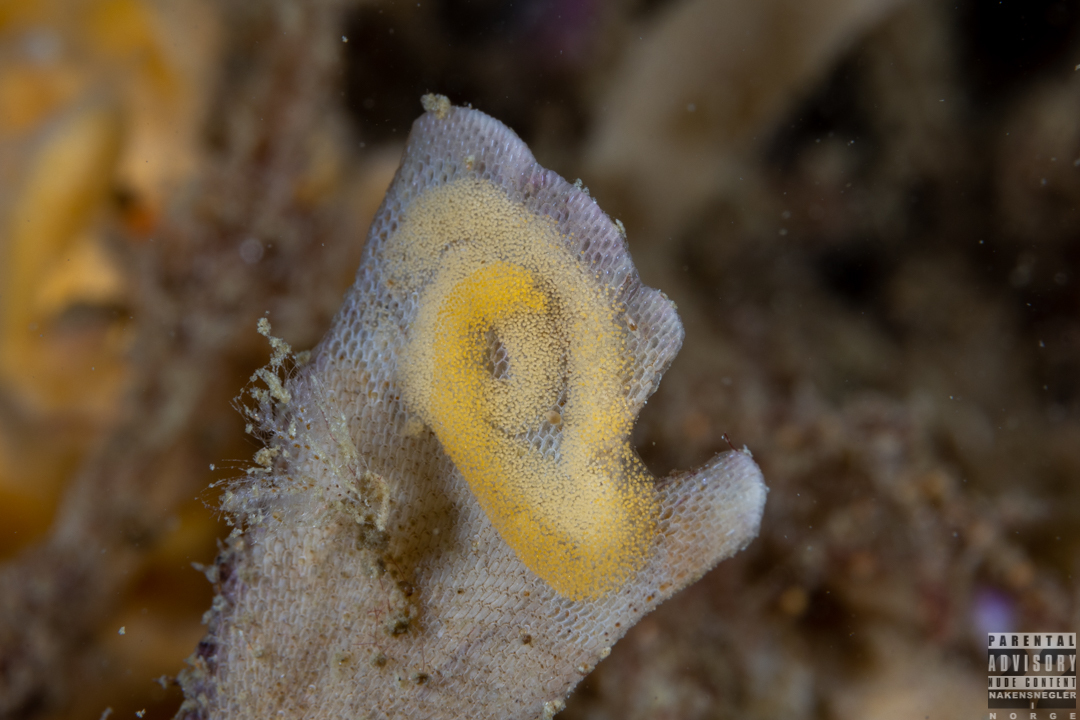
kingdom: Animalia
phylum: Mollusca
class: Gastropoda
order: Nudibranchia
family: Polyceridae
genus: Crimora
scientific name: Crimora papillata
